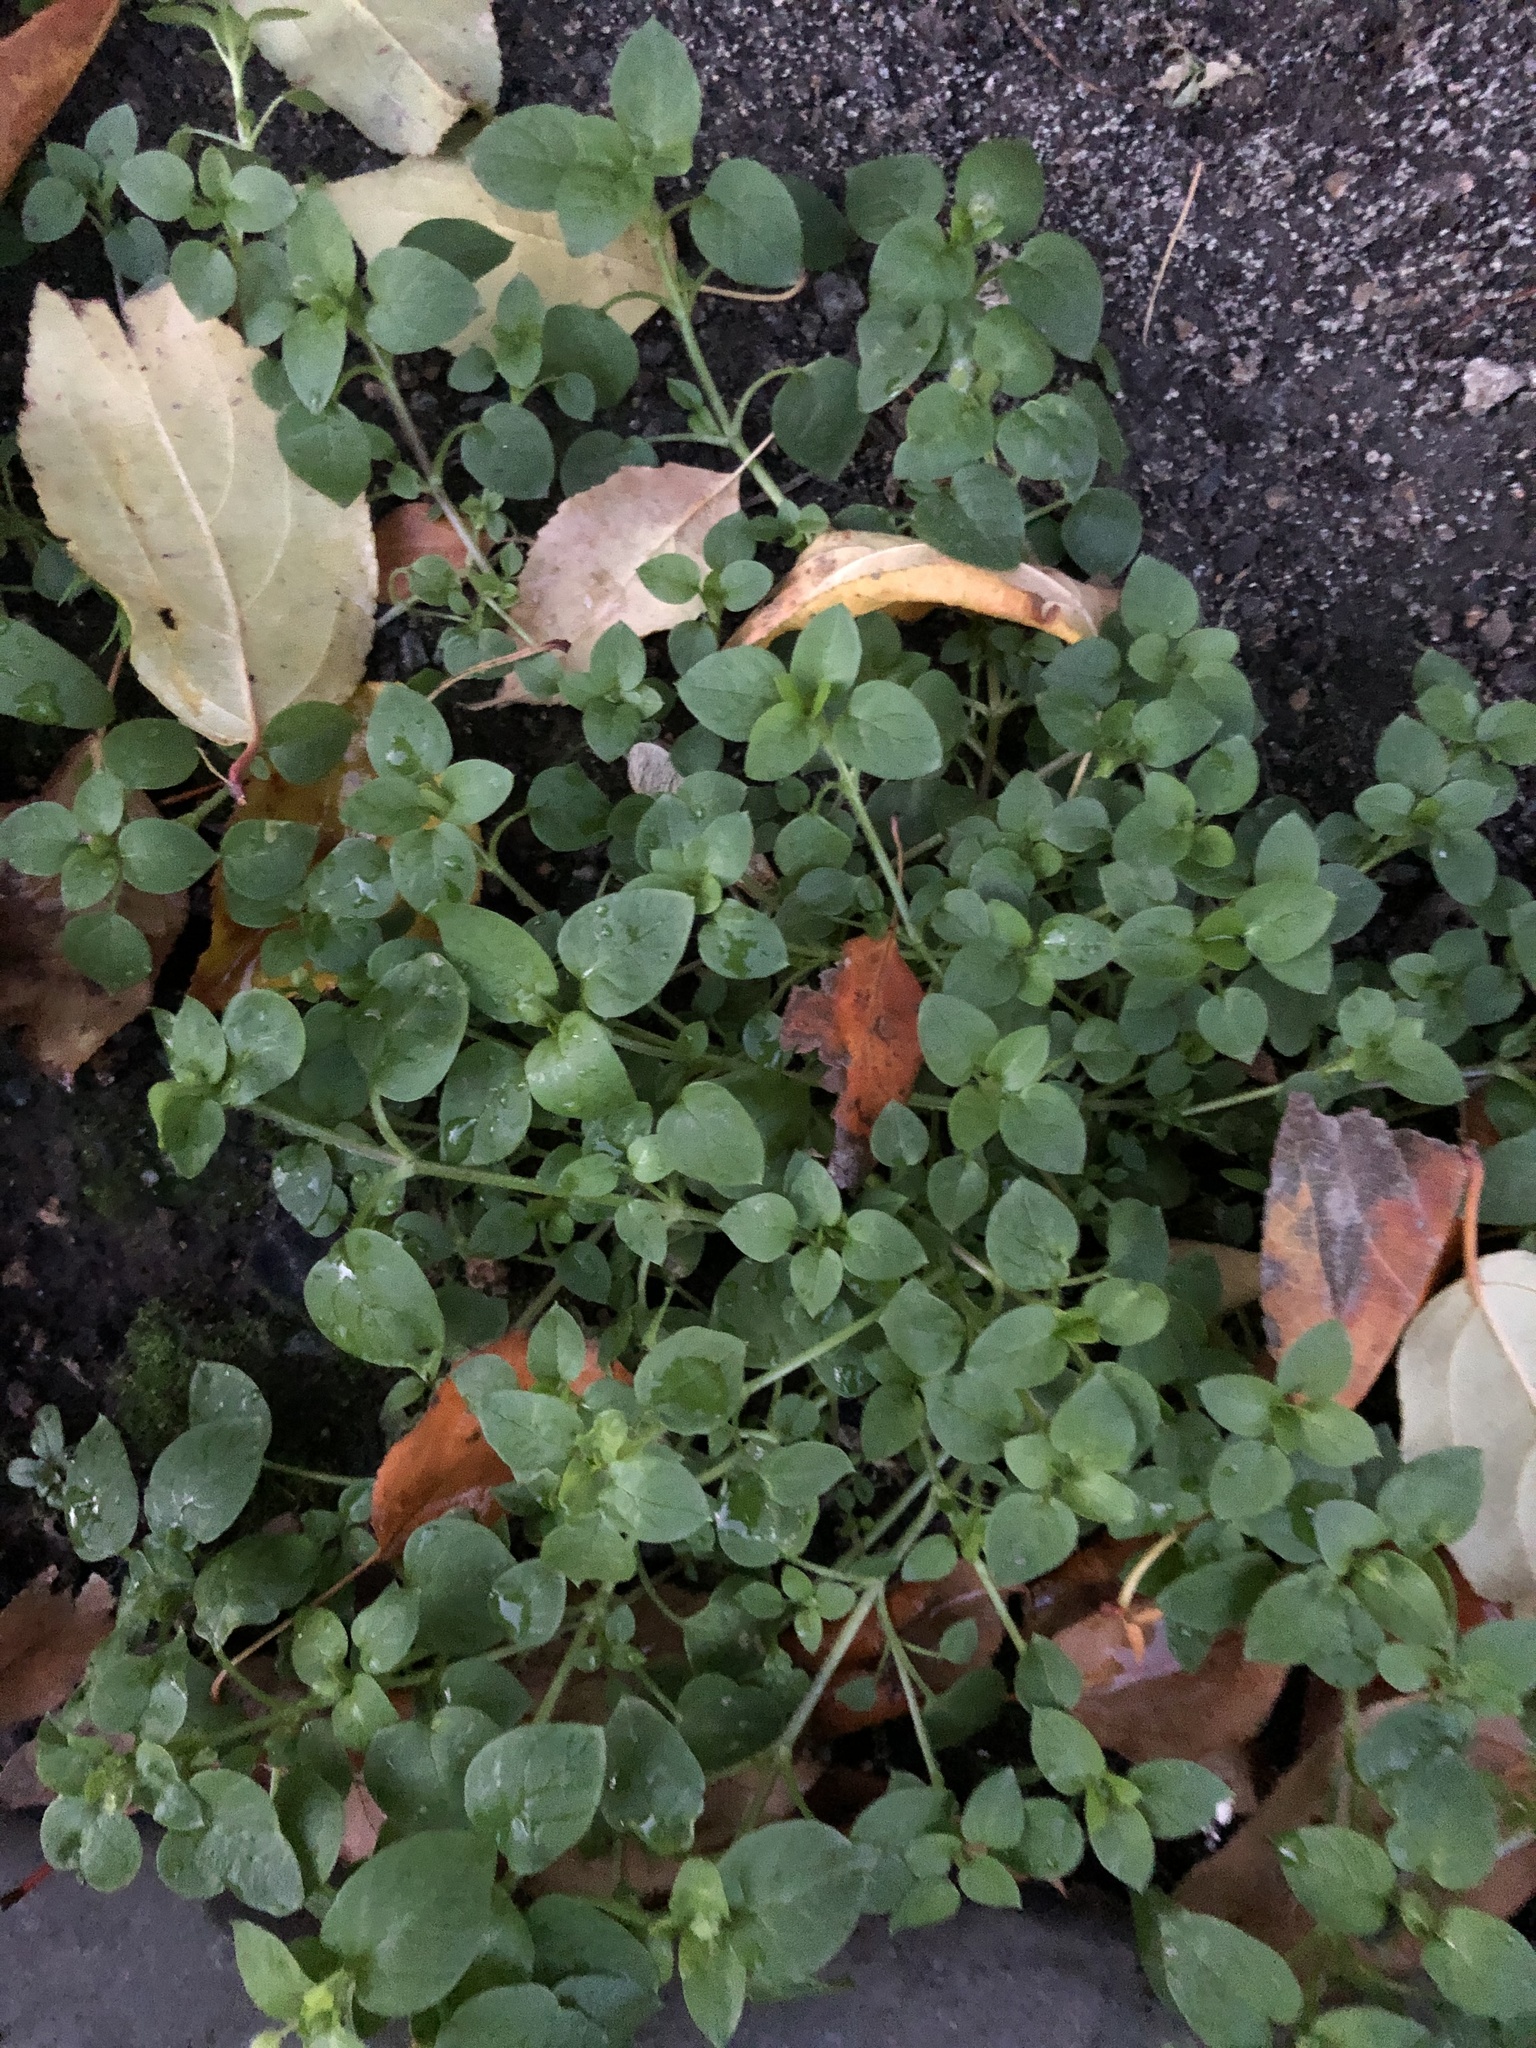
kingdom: Plantae
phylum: Tracheophyta
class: Magnoliopsida
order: Caryophyllales
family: Caryophyllaceae
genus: Stellaria
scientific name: Stellaria media
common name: Common chickweed
